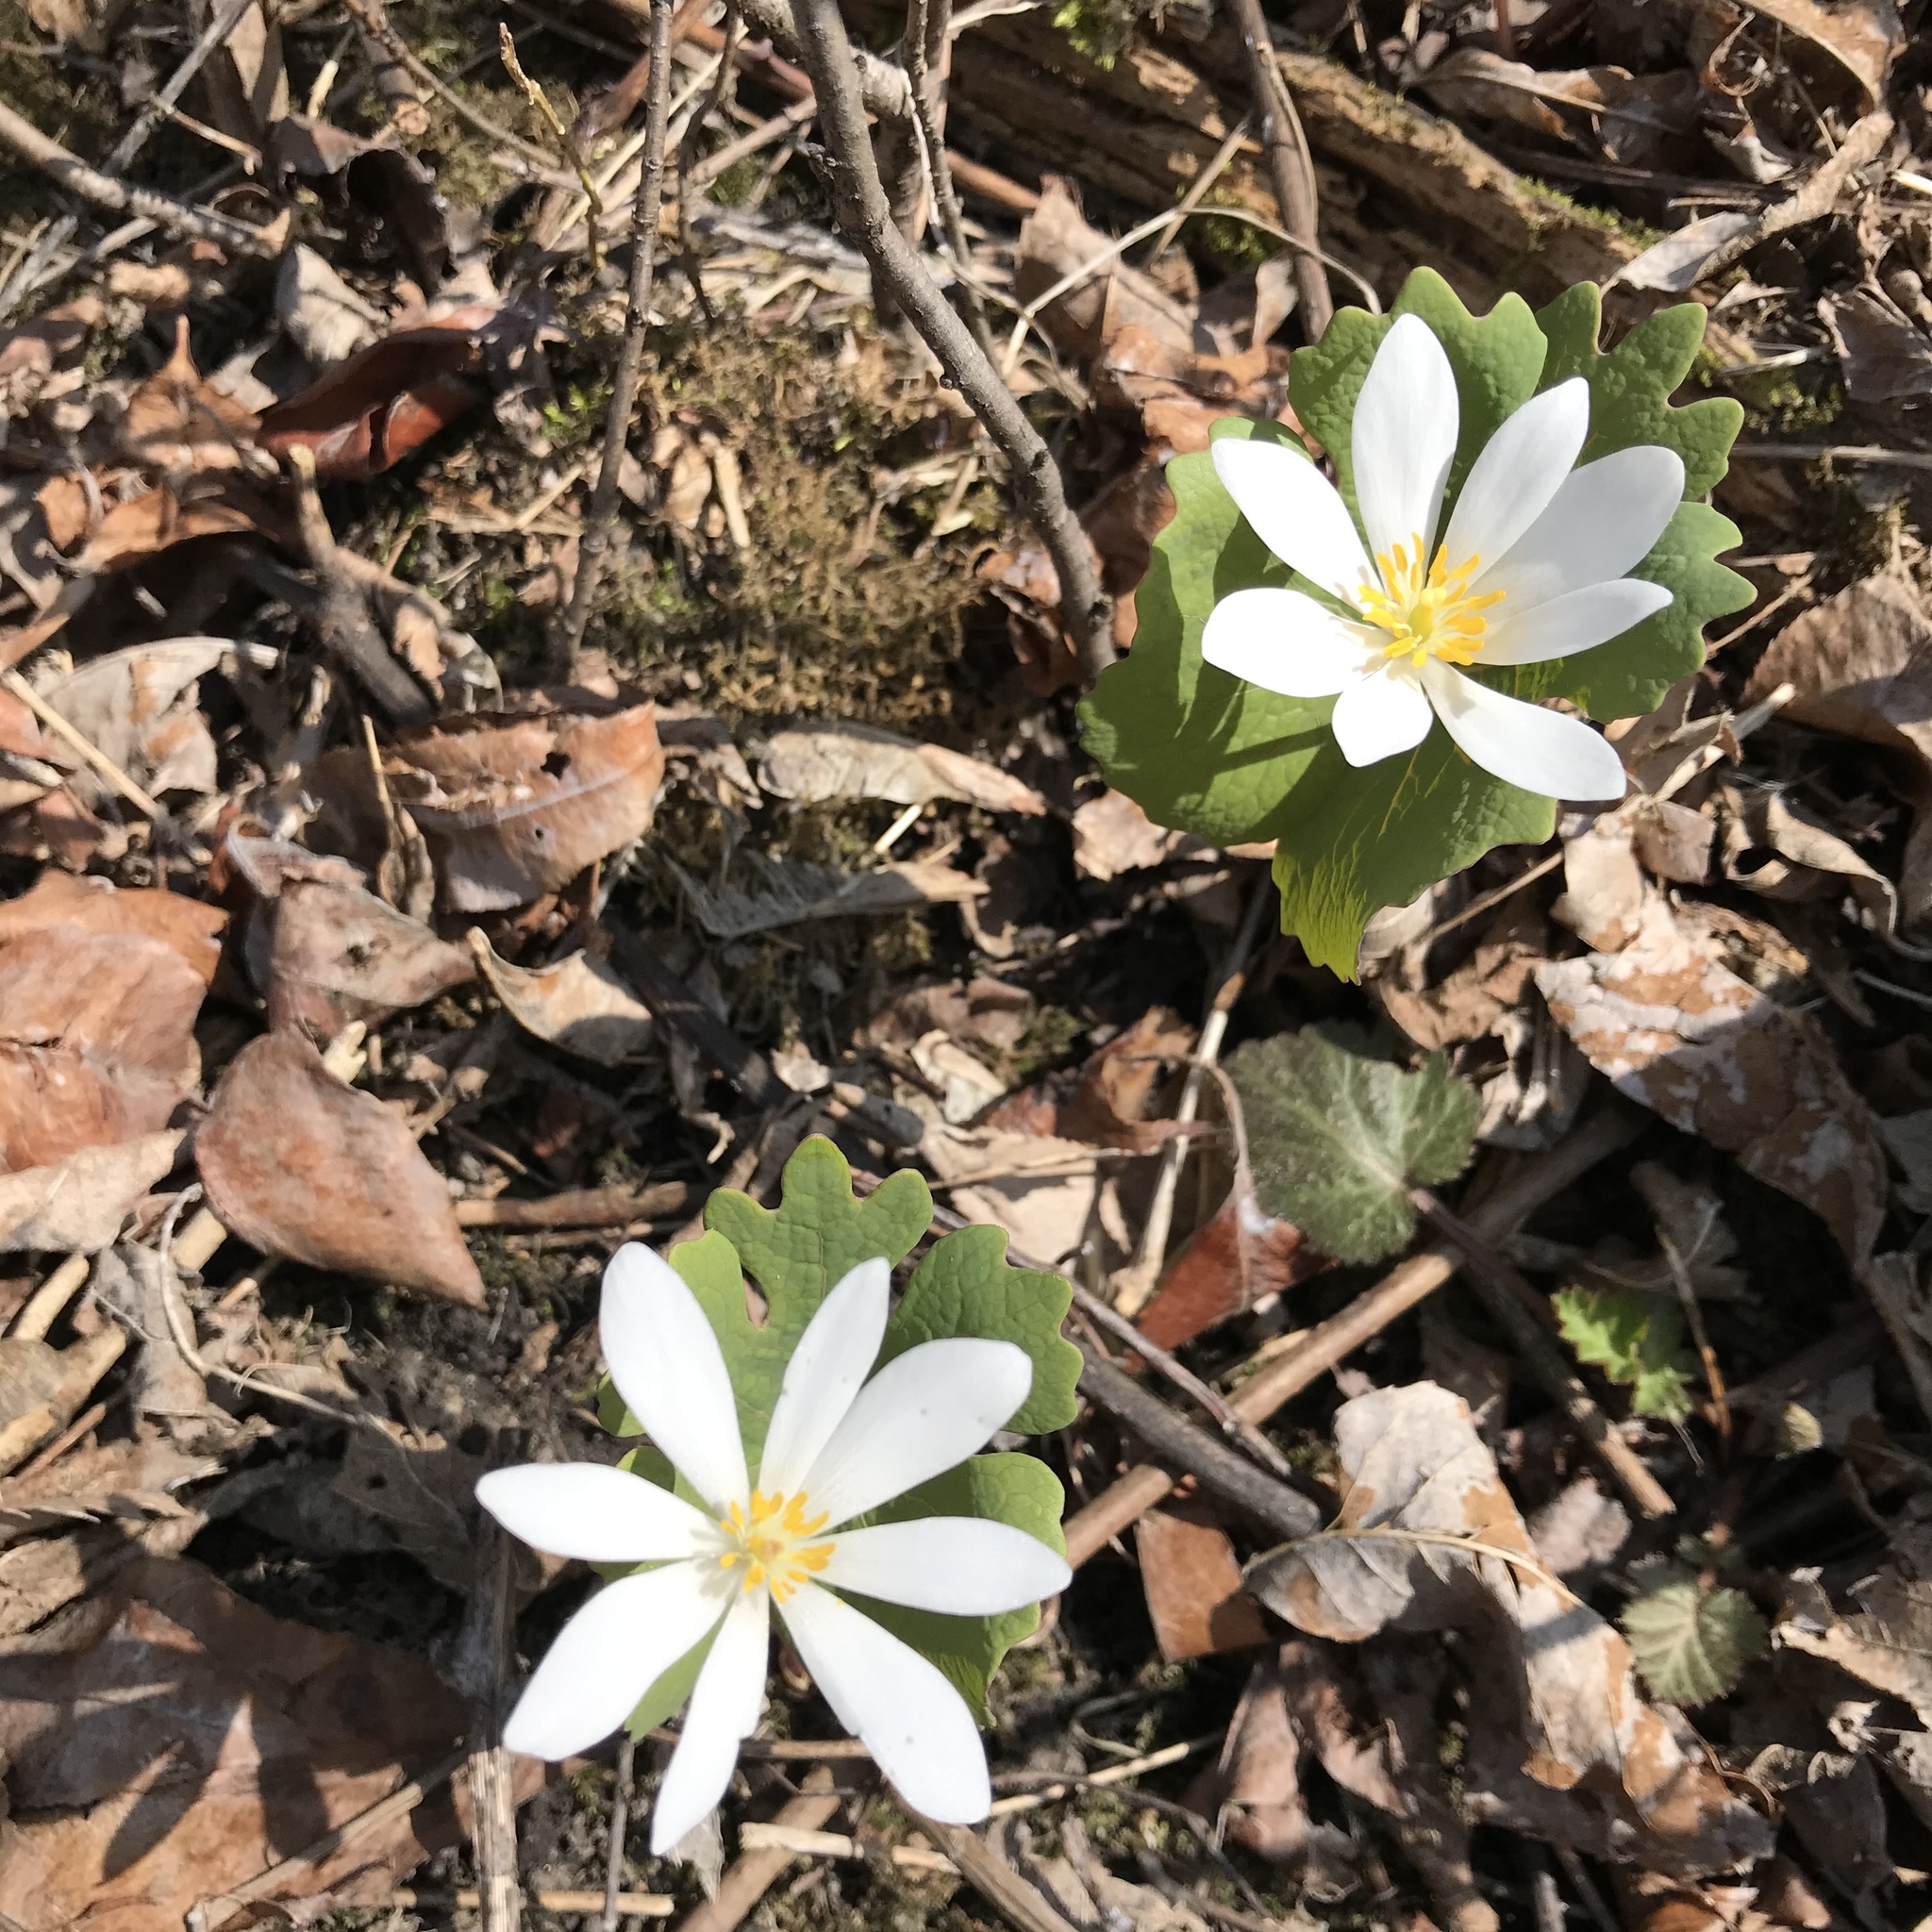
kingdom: Plantae
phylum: Tracheophyta
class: Magnoliopsida
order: Ranunculales
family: Papaveraceae
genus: Sanguinaria
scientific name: Sanguinaria canadensis
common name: Bloodroot
